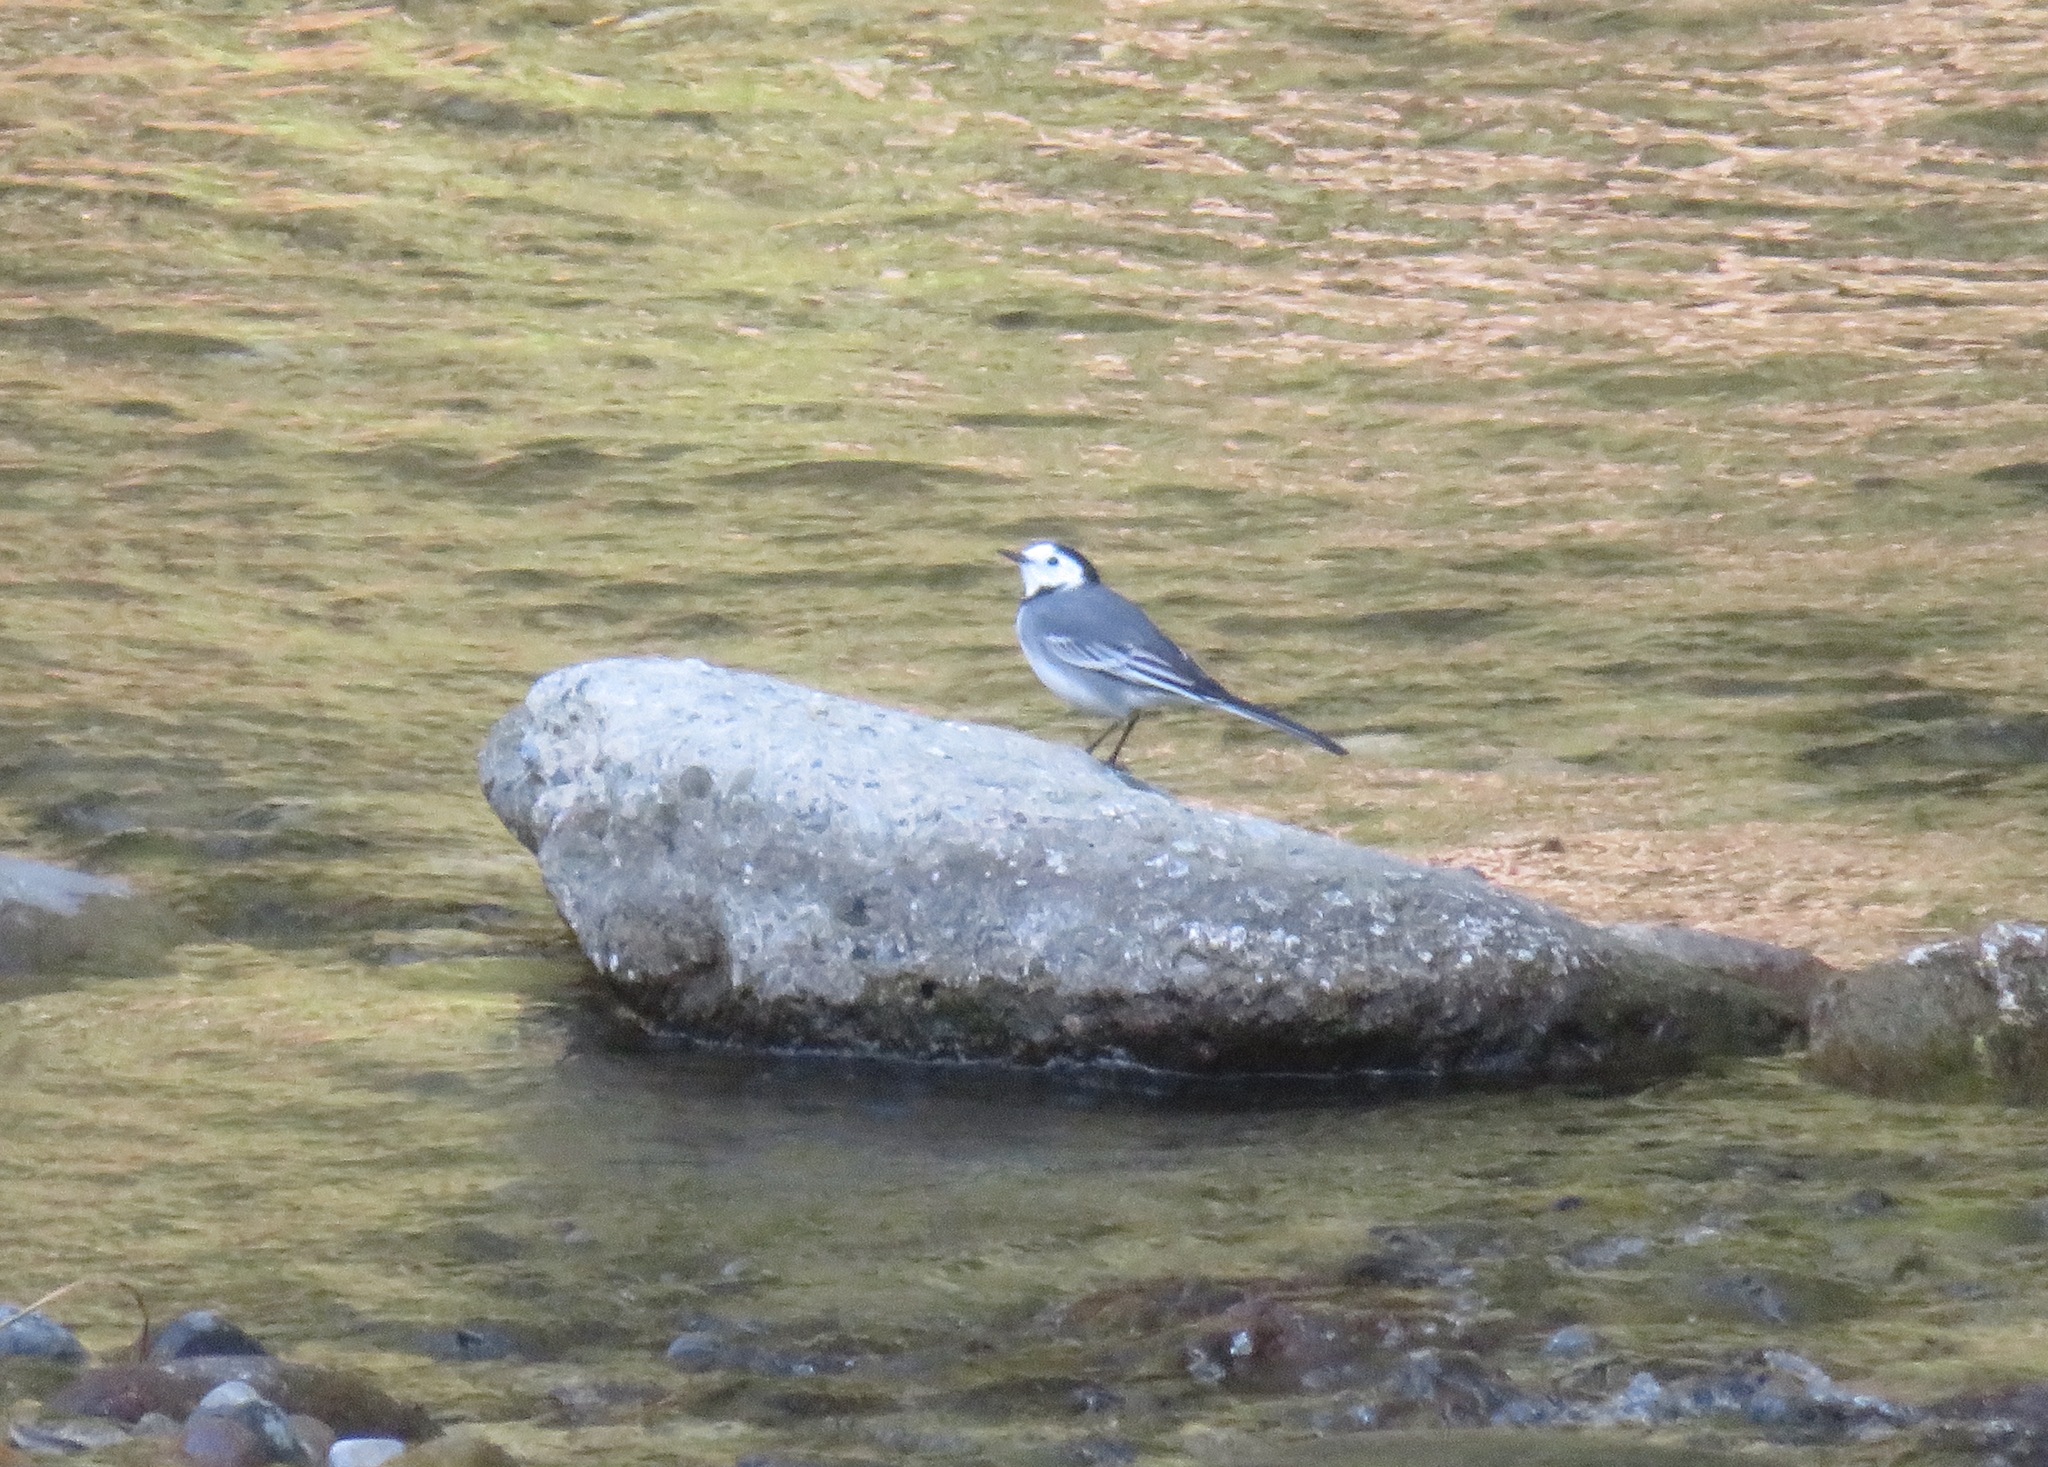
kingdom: Animalia
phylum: Chordata
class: Aves
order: Passeriformes
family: Motacillidae
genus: Motacilla
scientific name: Motacilla alba
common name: White wagtail
